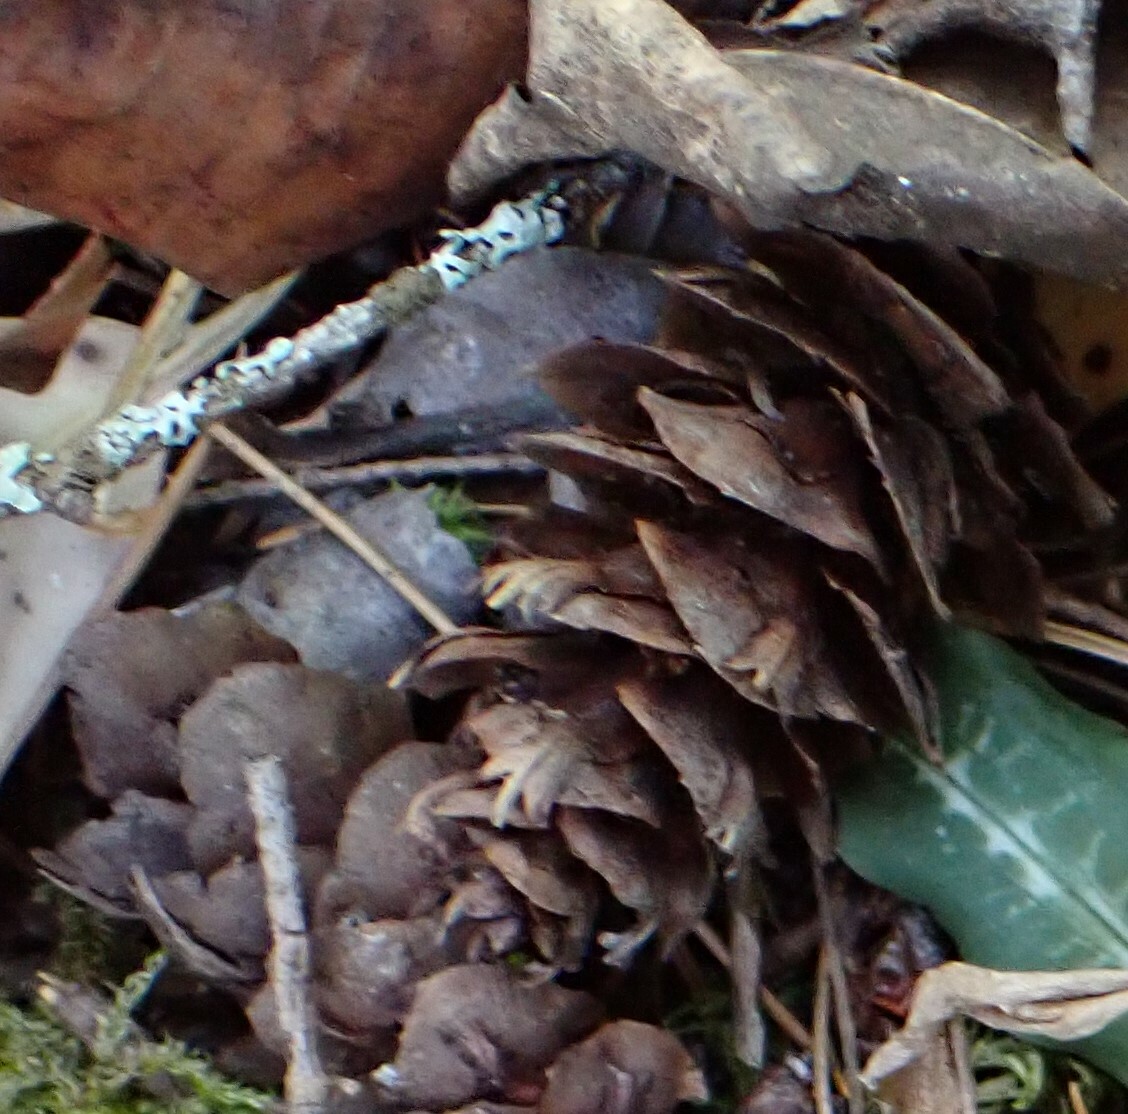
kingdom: Plantae
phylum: Tracheophyta
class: Pinopsida
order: Pinales
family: Pinaceae
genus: Pseudotsuga
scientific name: Pseudotsuga menziesii
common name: Douglas fir
